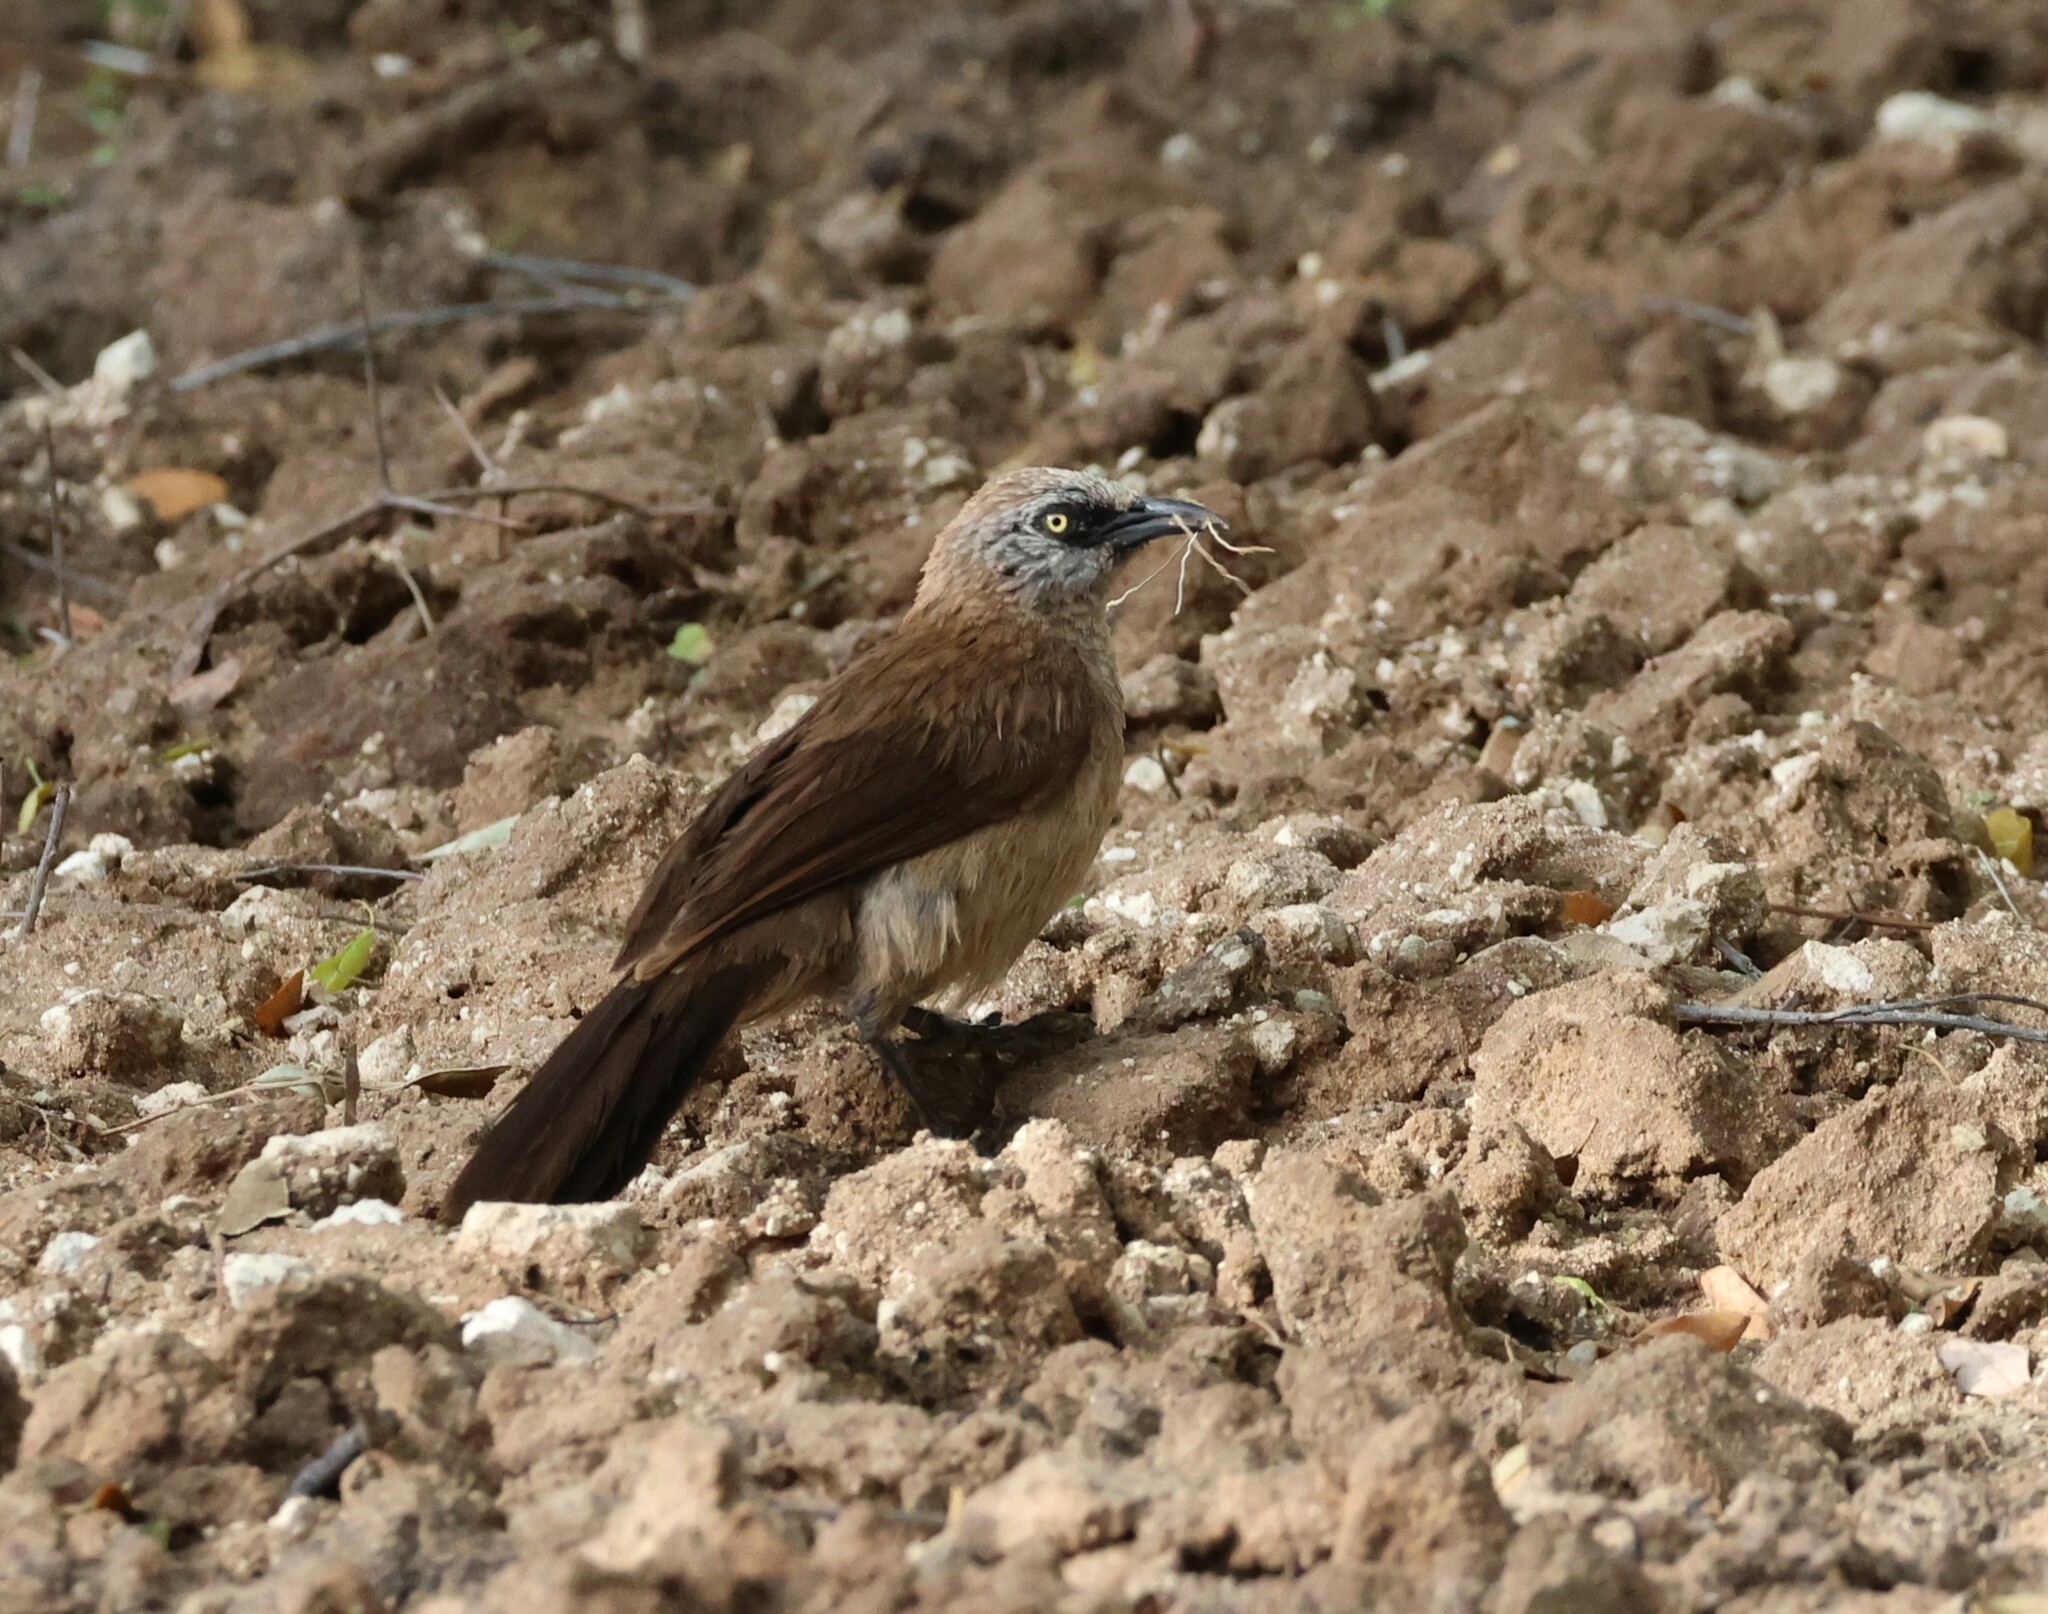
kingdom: Animalia
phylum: Chordata
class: Aves
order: Passeriformes
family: Leiothrichidae
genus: Turdoides
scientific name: Turdoides melanops
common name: Black-faced babbler
